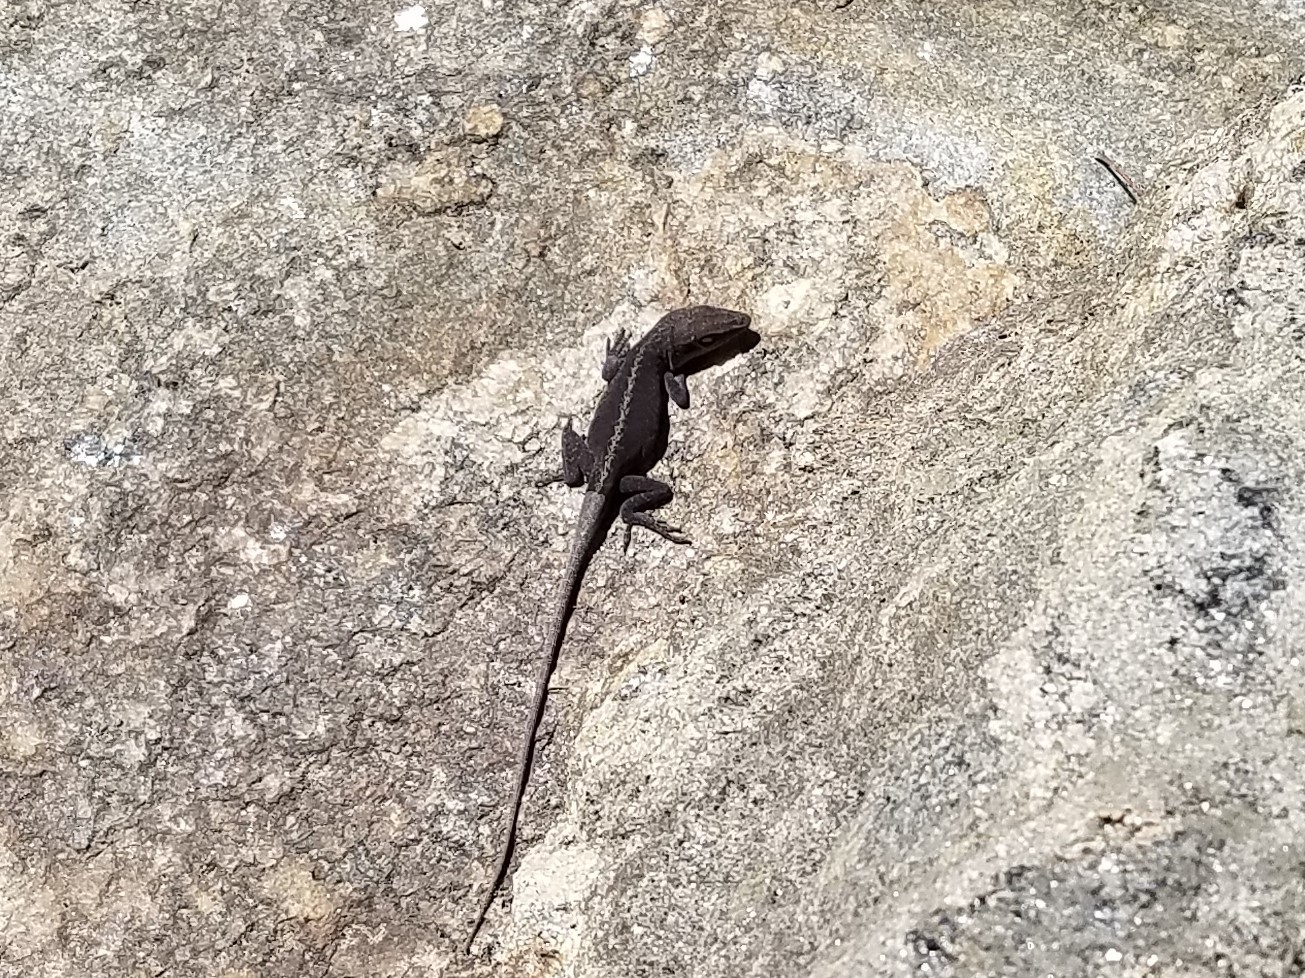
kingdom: Animalia
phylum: Chordata
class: Squamata
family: Dactyloidae
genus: Anolis
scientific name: Anolis carolinensis
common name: Green anole
